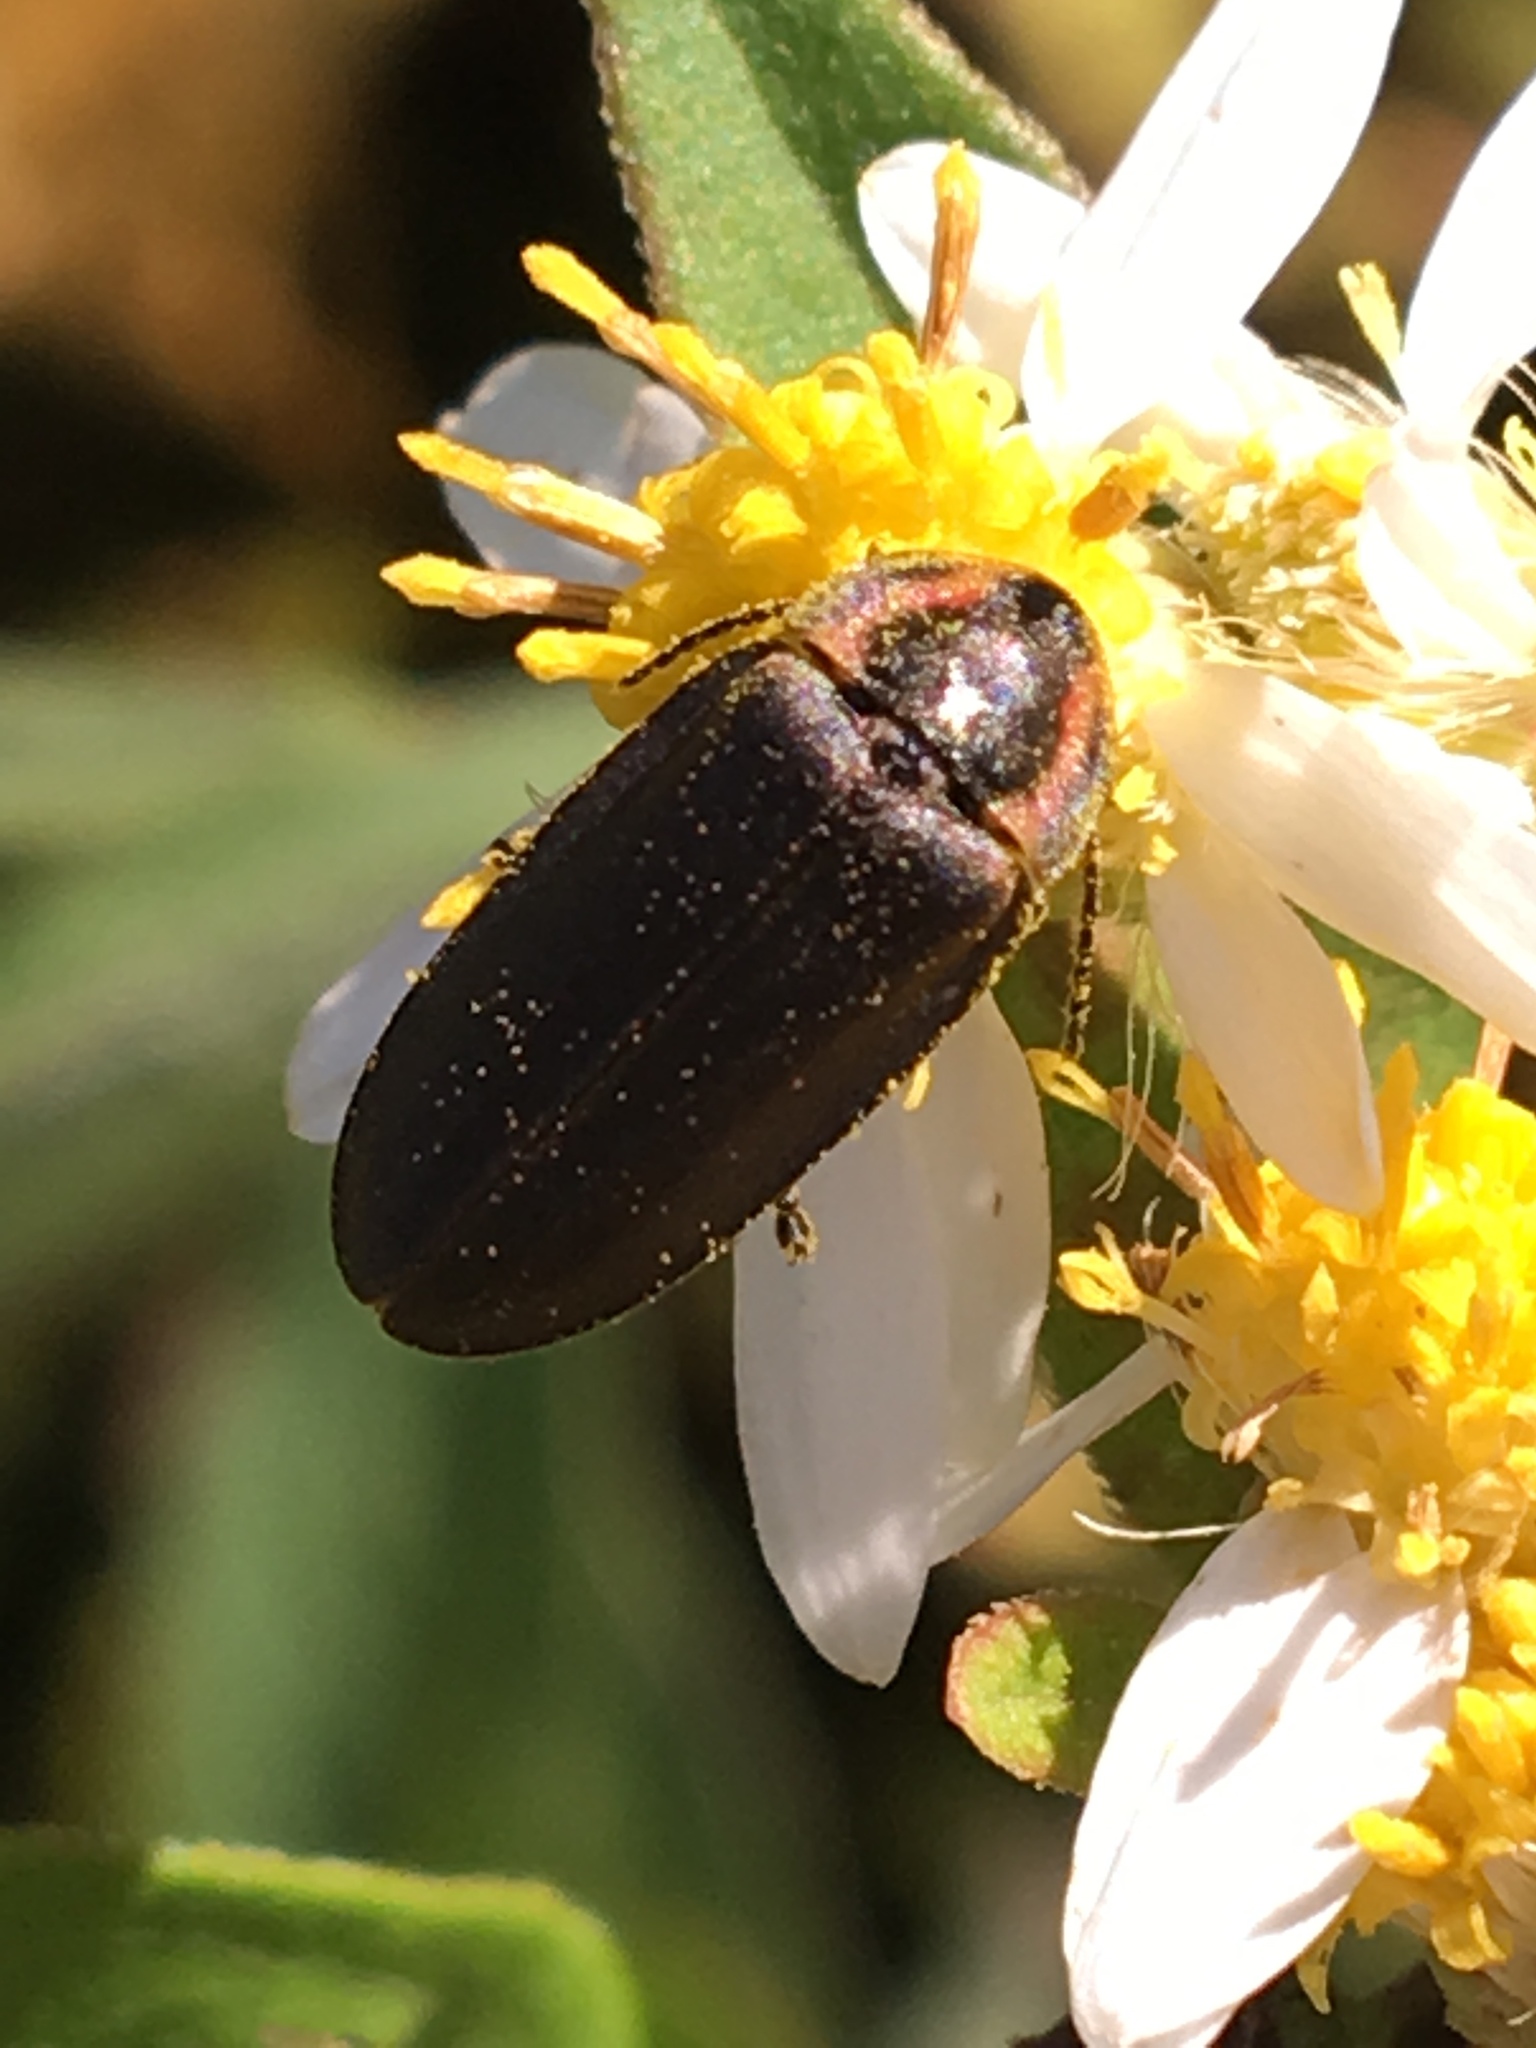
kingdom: Animalia
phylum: Arthropoda
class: Insecta
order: Coleoptera
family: Lampyridae
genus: Photinus
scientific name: Photinus corrusca
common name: Winter firefly
